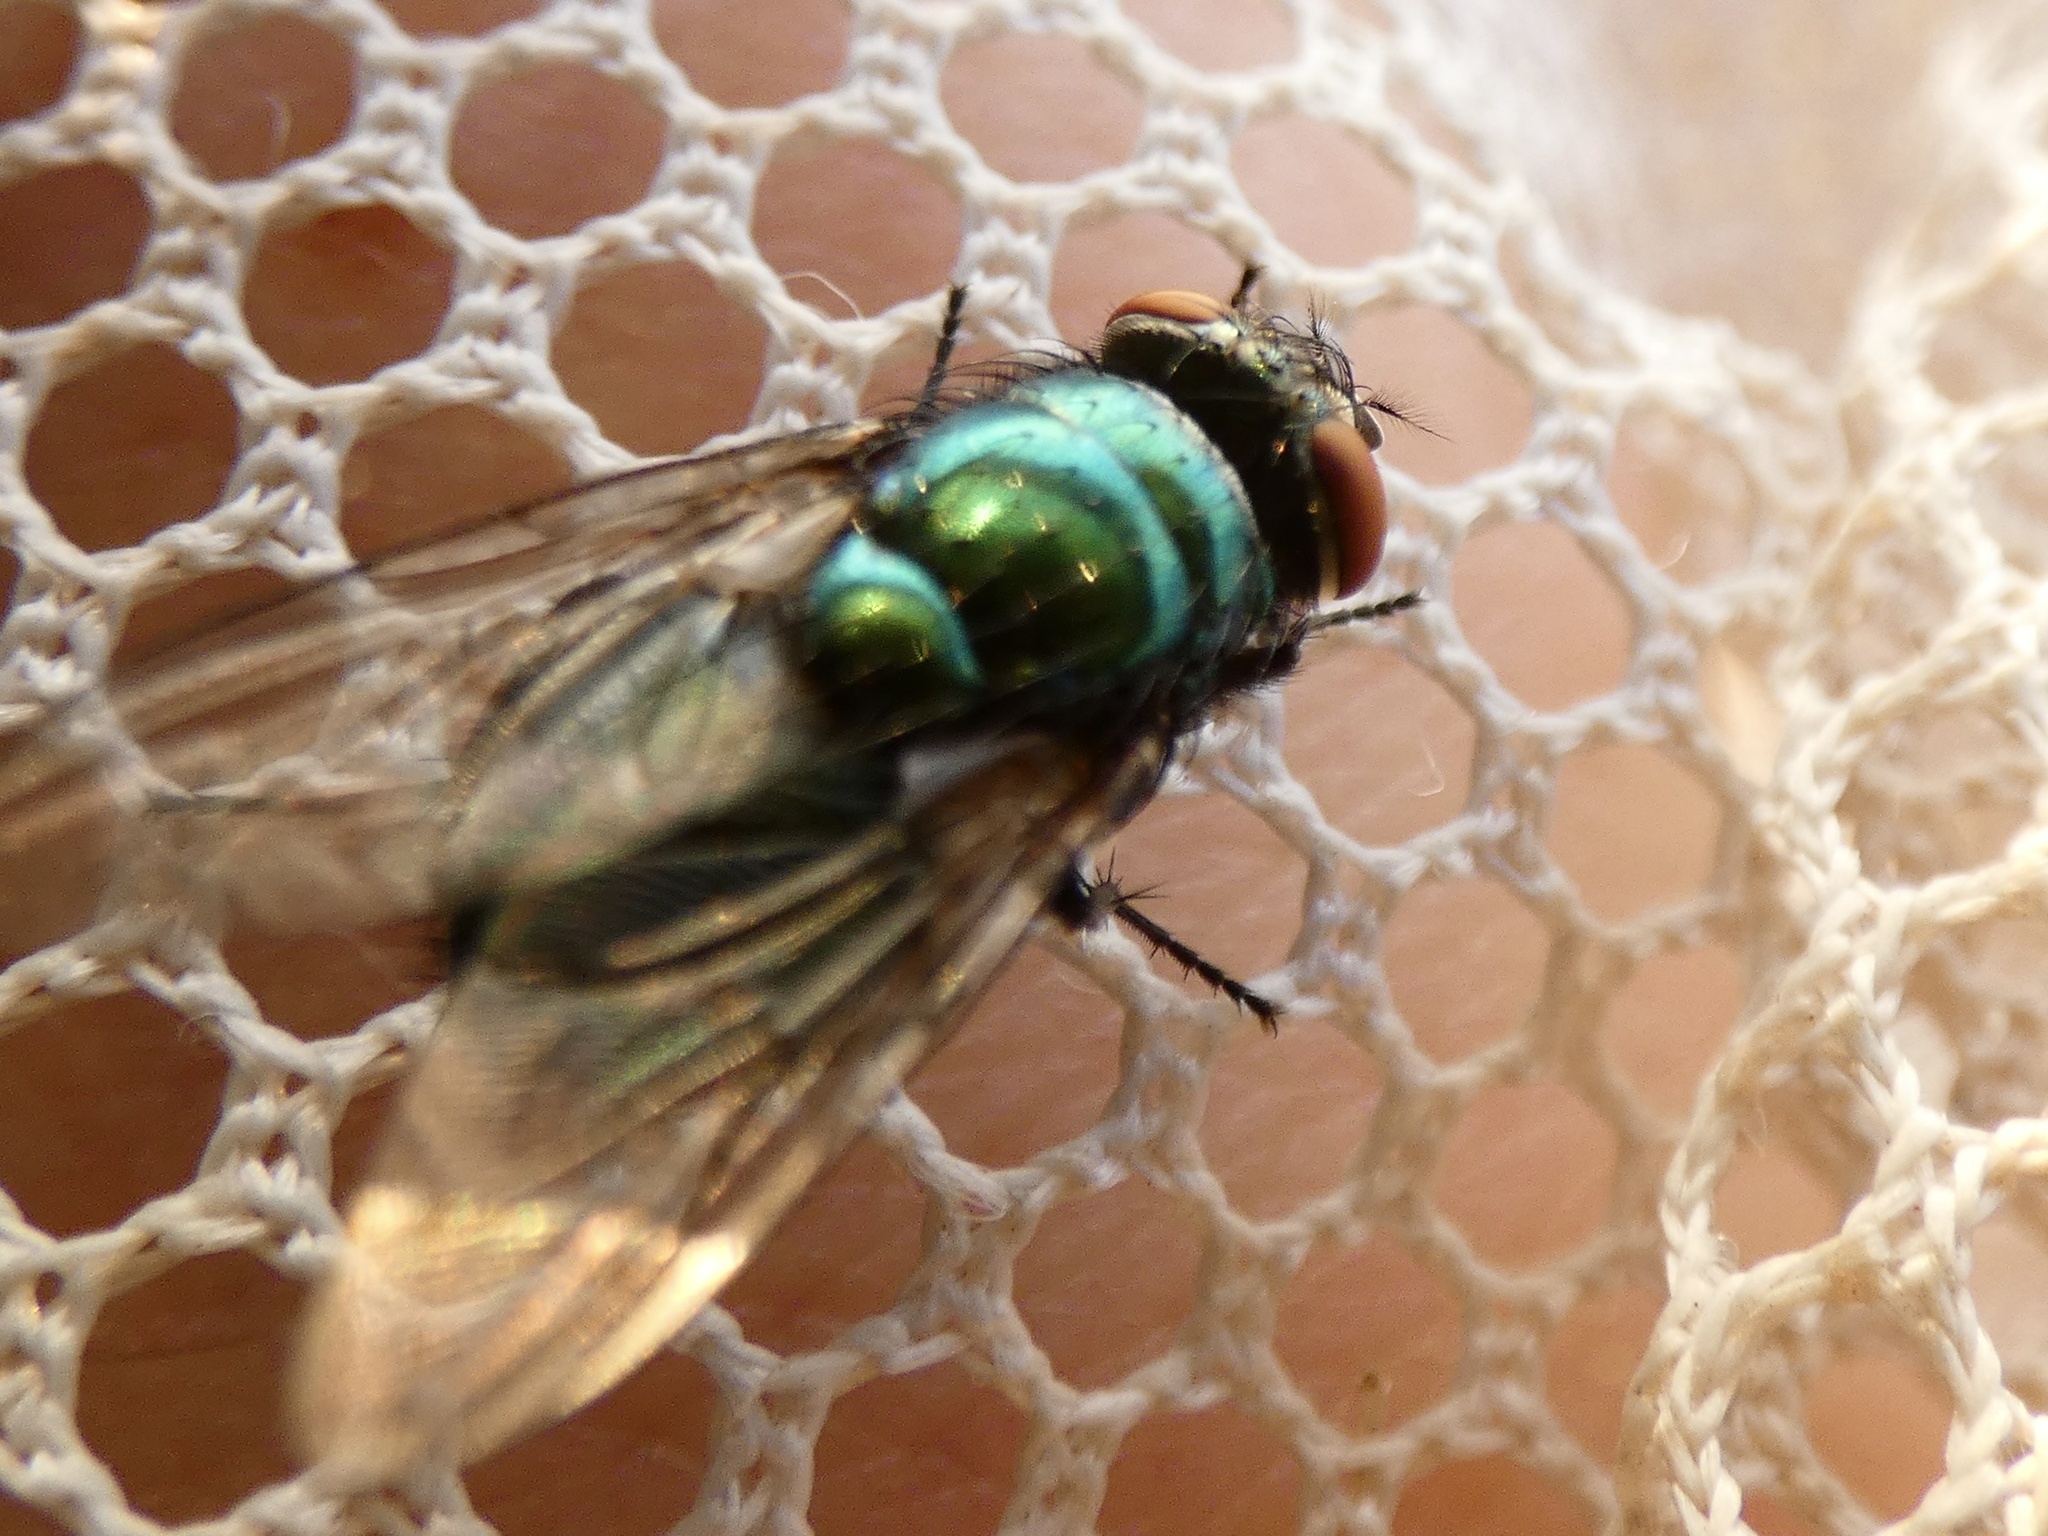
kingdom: Animalia
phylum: Arthropoda
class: Insecta
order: Diptera
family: Calliphoridae
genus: Lucilia
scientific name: Lucilia sericata
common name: Blow fly
